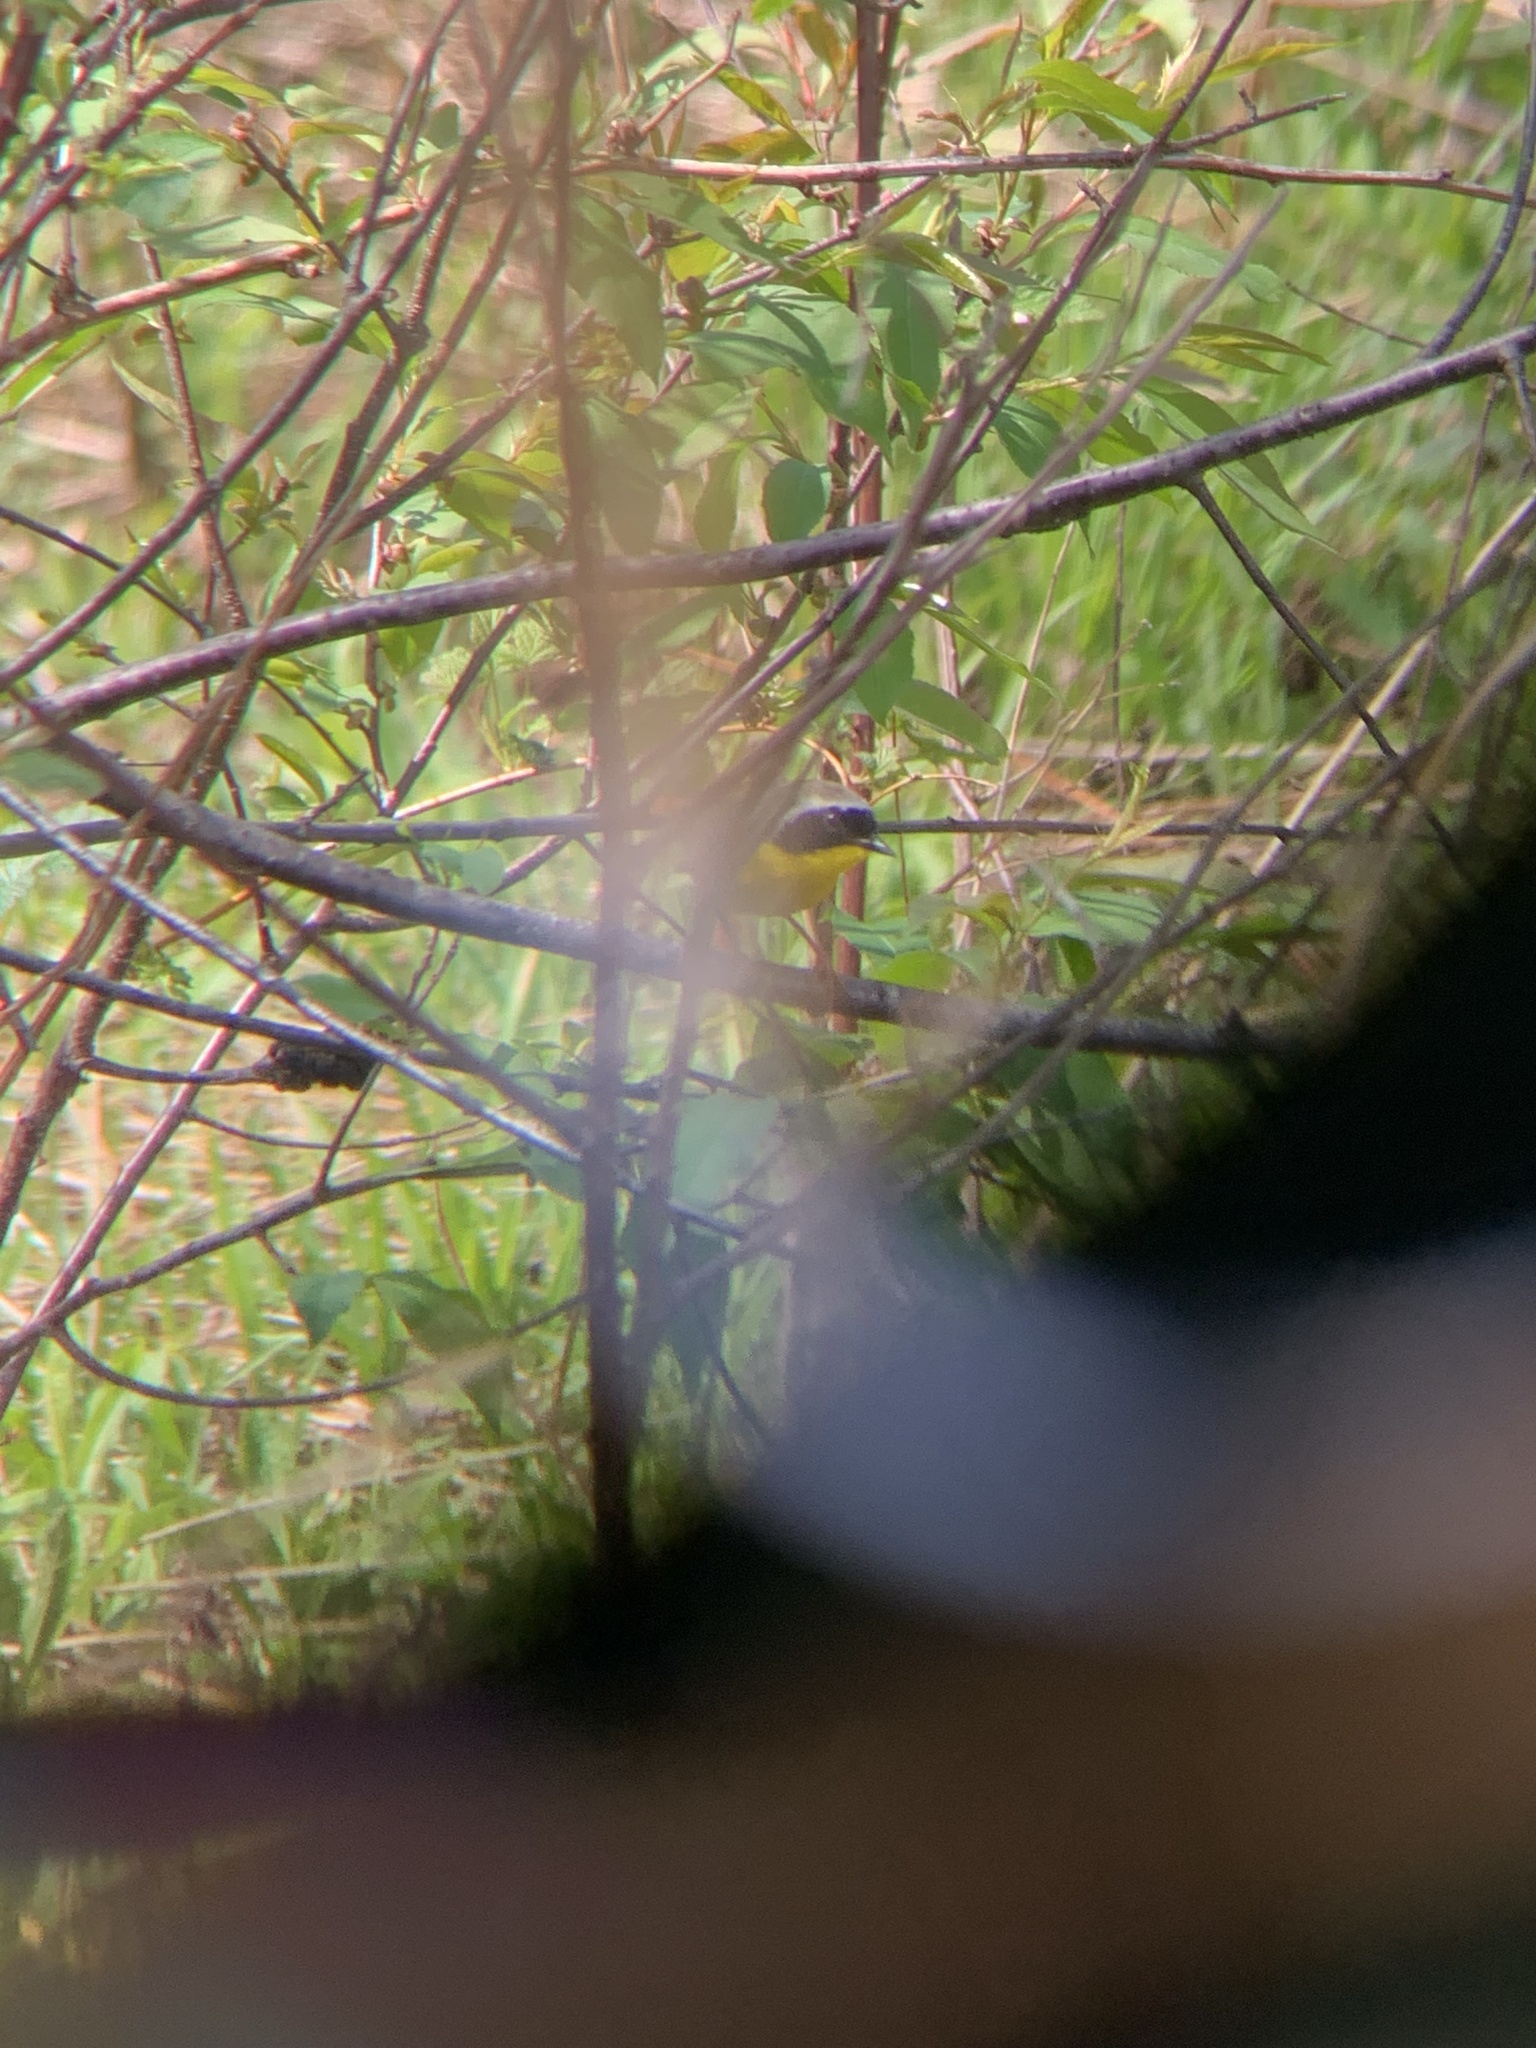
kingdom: Animalia
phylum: Chordata
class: Aves
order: Passeriformes
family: Parulidae
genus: Geothlypis
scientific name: Geothlypis trichas
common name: Common yellowthroat
